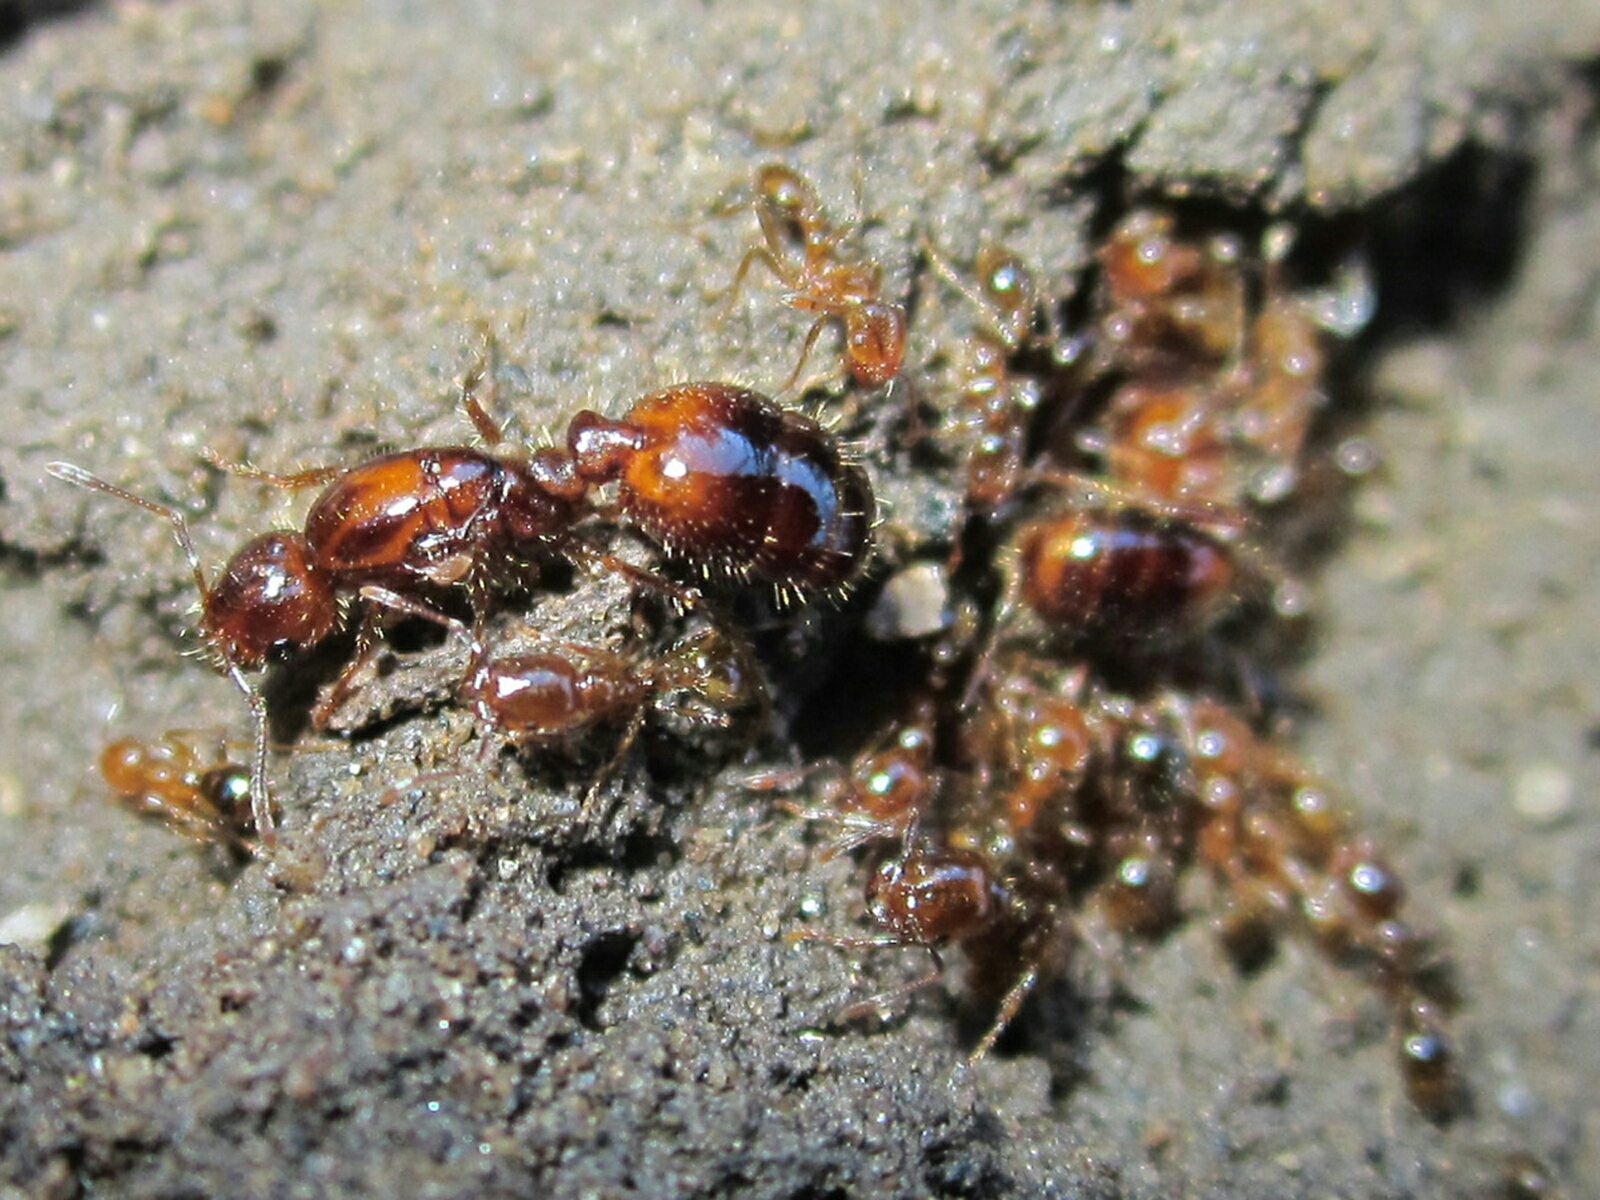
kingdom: Animalia
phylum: Arthropoda
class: Insecta
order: Hymenoptera
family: Formicidae
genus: Solenopsis
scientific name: Solenopsis gayi
